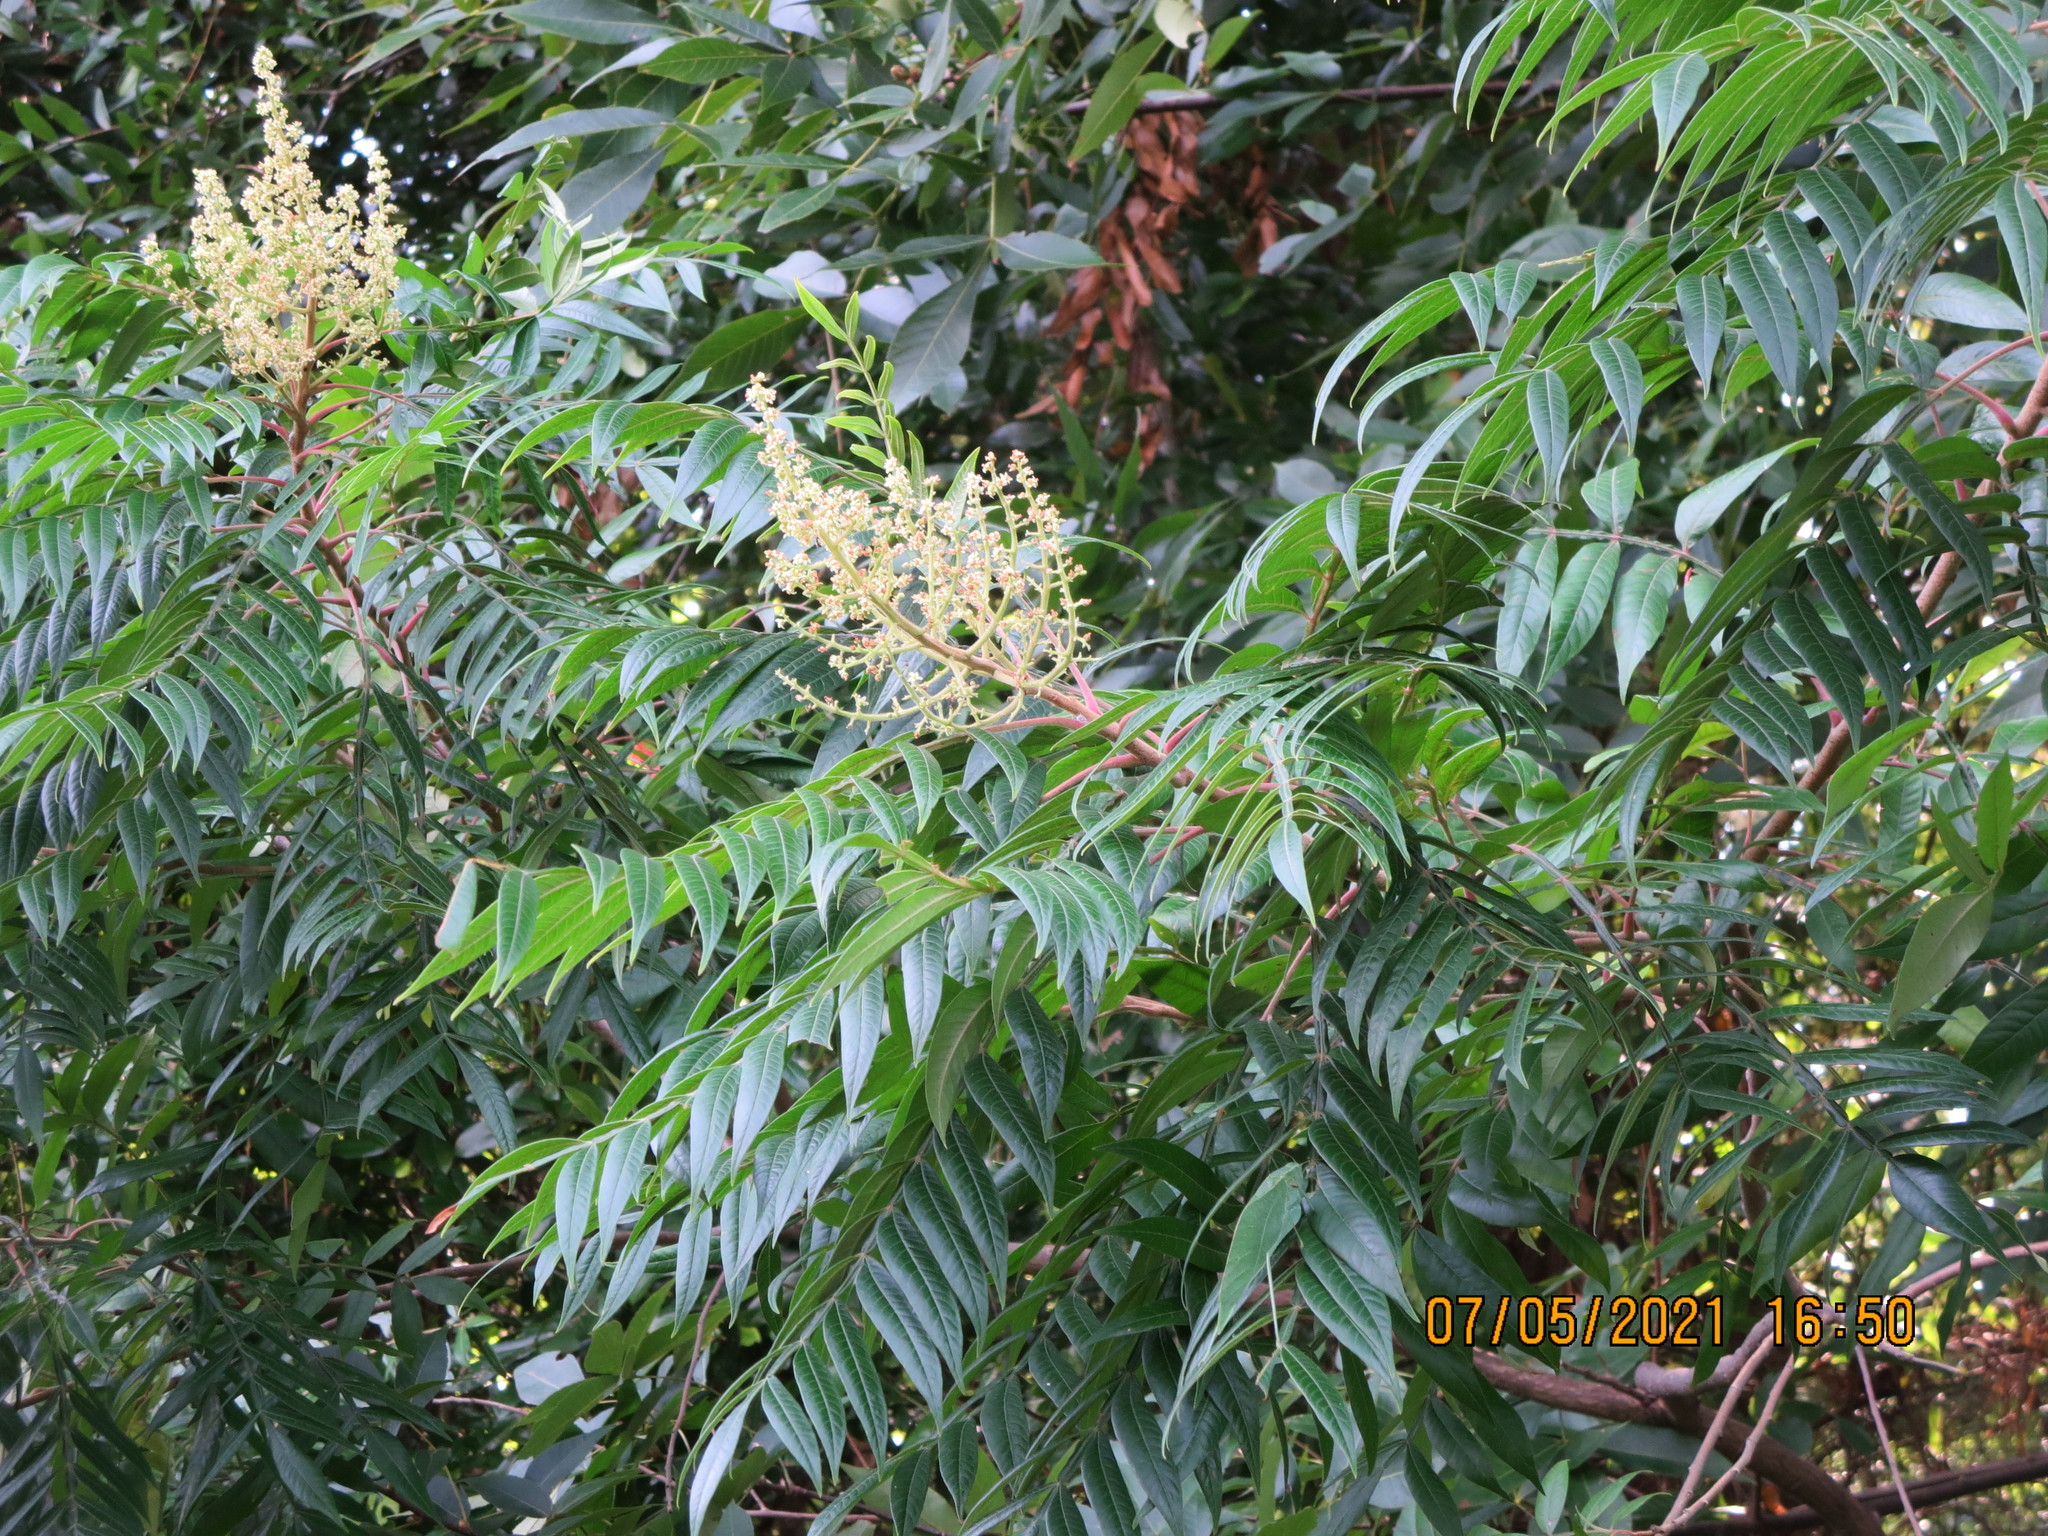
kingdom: Plantae
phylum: Tracheophyta
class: Magnoliopsida
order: Sapindales
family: Anacardiaceae
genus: Rhus
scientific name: Rhus copallina
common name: Shining sumac
